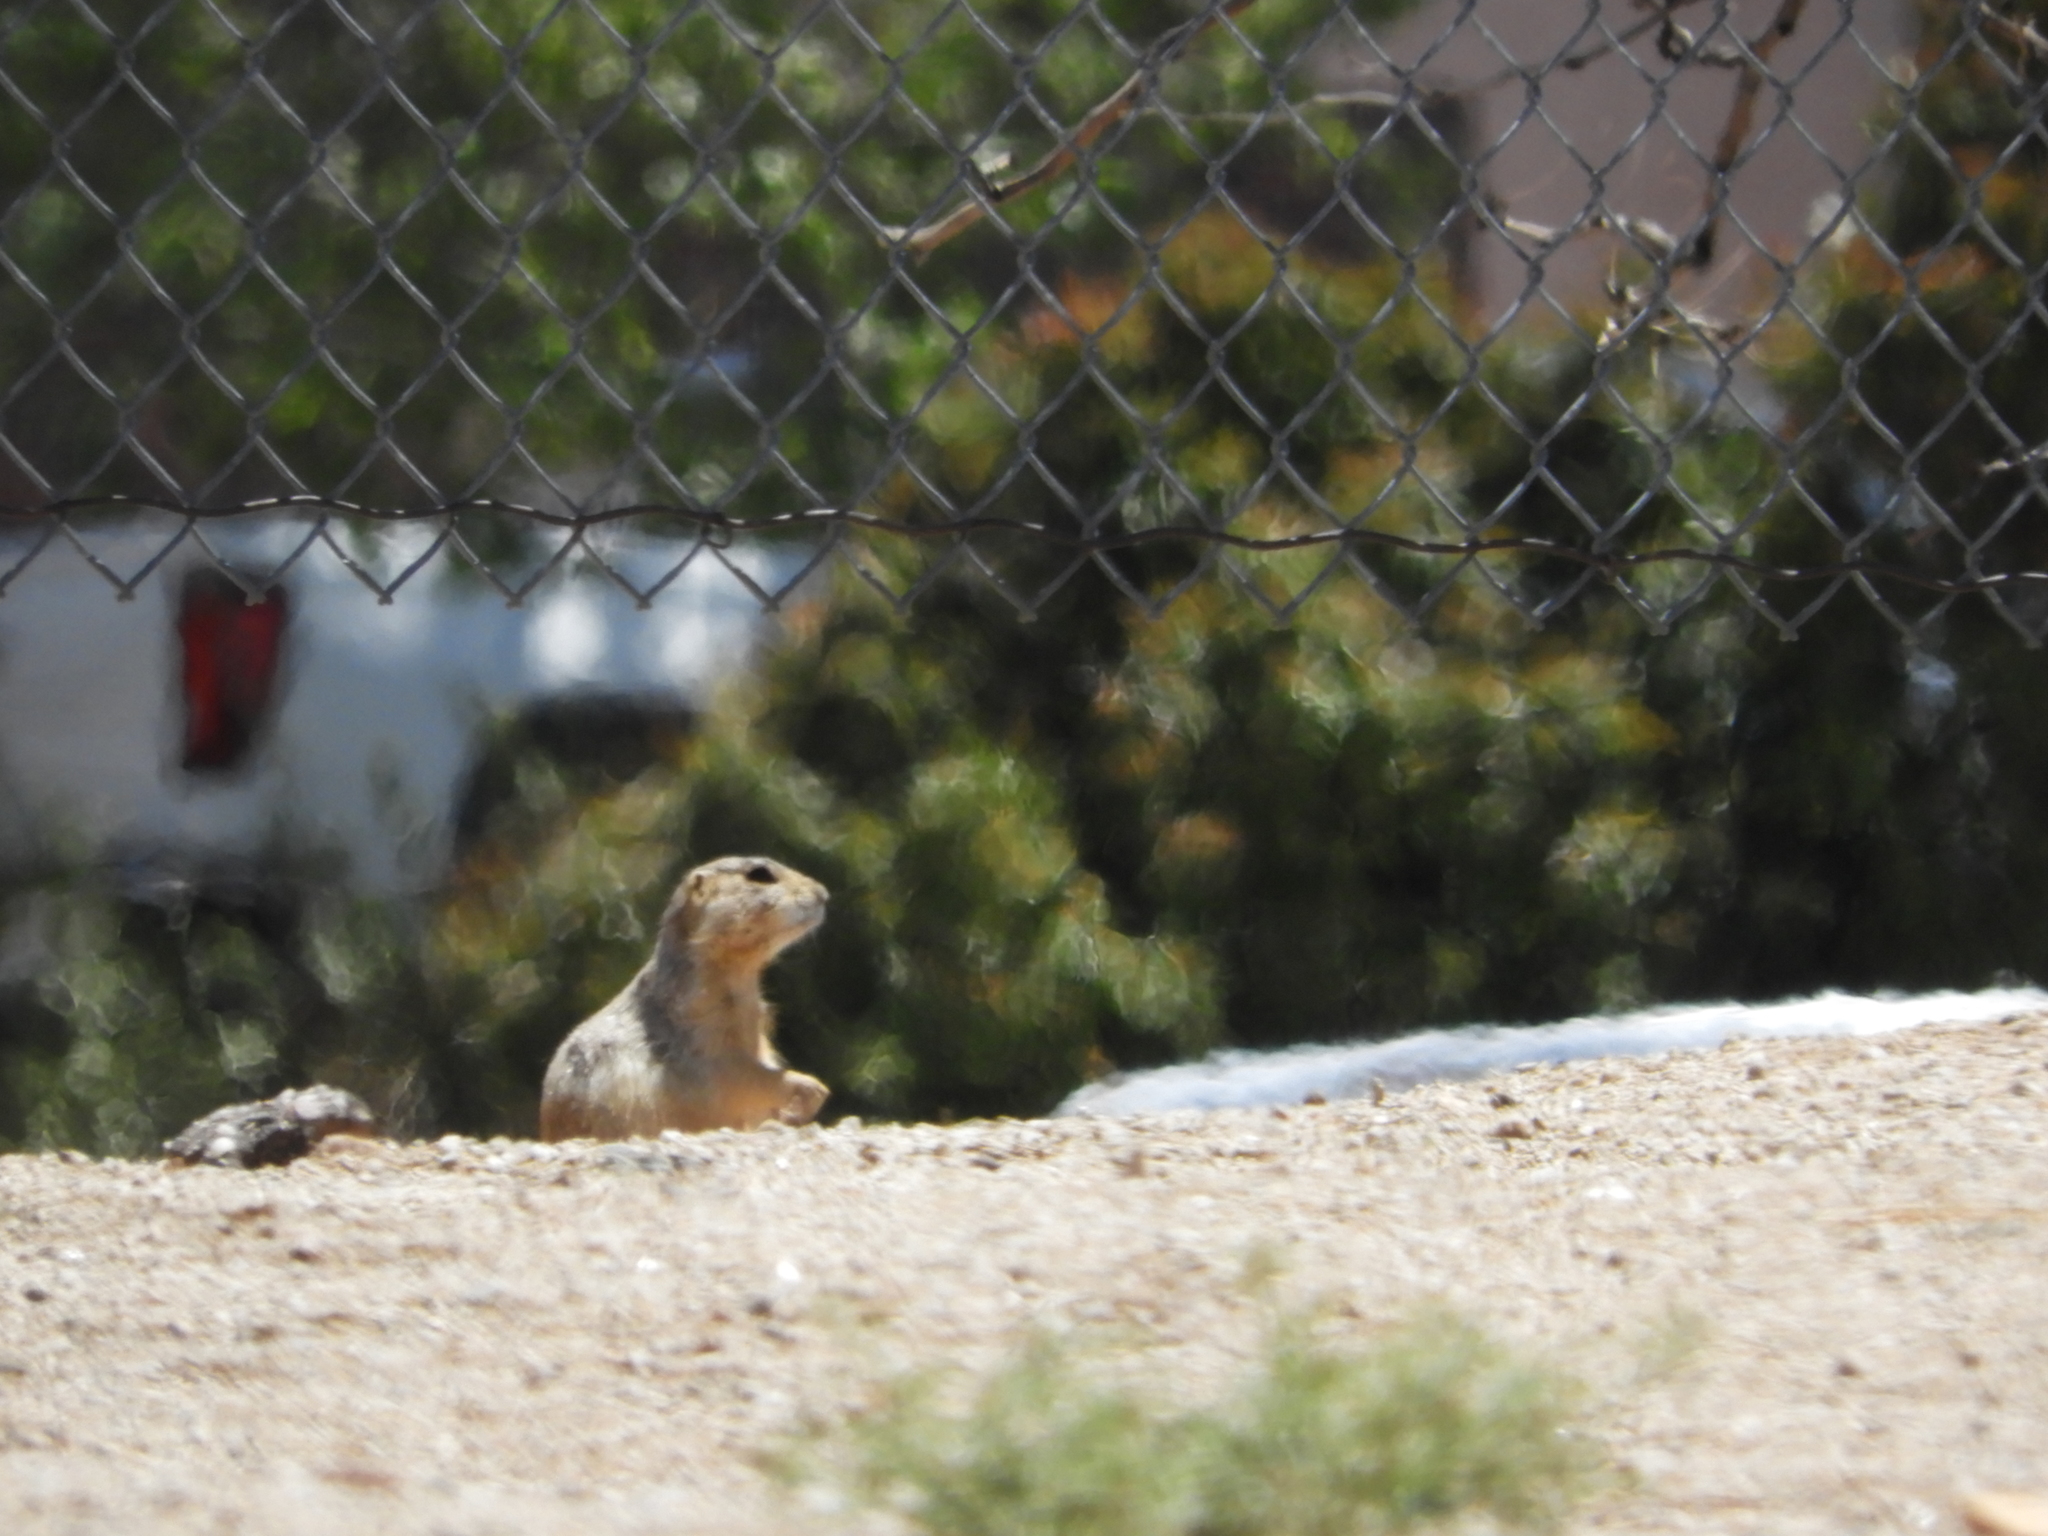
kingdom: Animalia
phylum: Chordata
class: Mammalia
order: Rodentia
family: Sciuridae
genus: Cynomys
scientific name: Cynomys gunnisoni
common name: Gunnison's prairie dog
